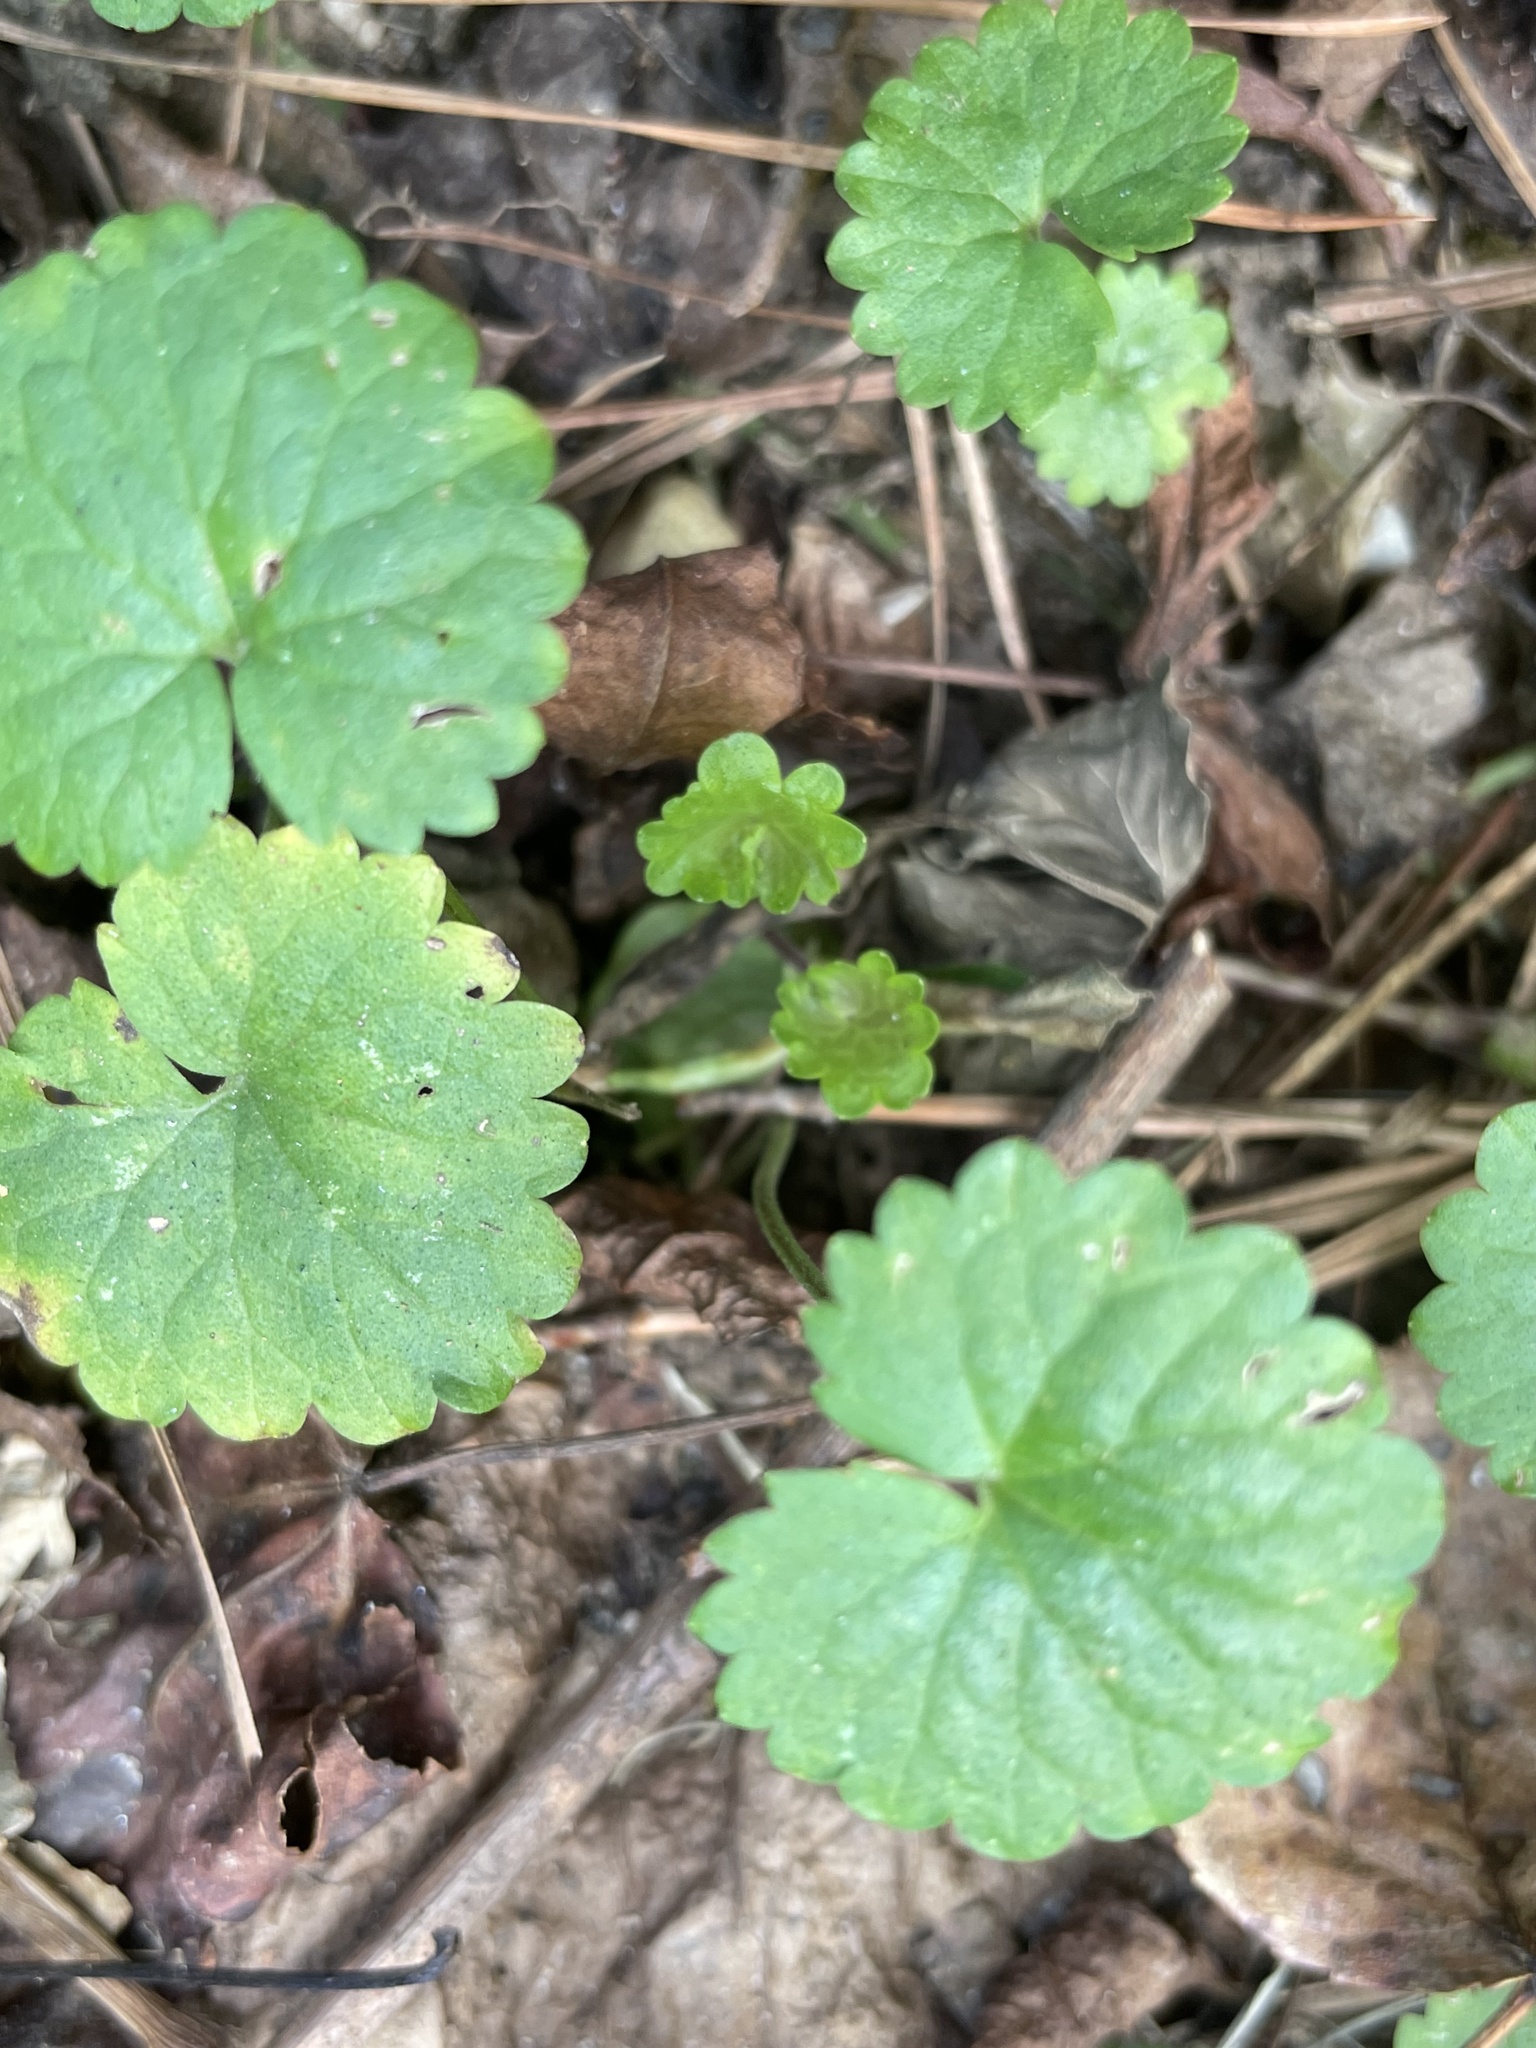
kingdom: Plantae
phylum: Tracheophyta
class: Magnoliopsida
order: Lamiales
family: Lamiaceae
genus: Glechoma
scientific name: Glechoma hederacea
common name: Ground ivy
